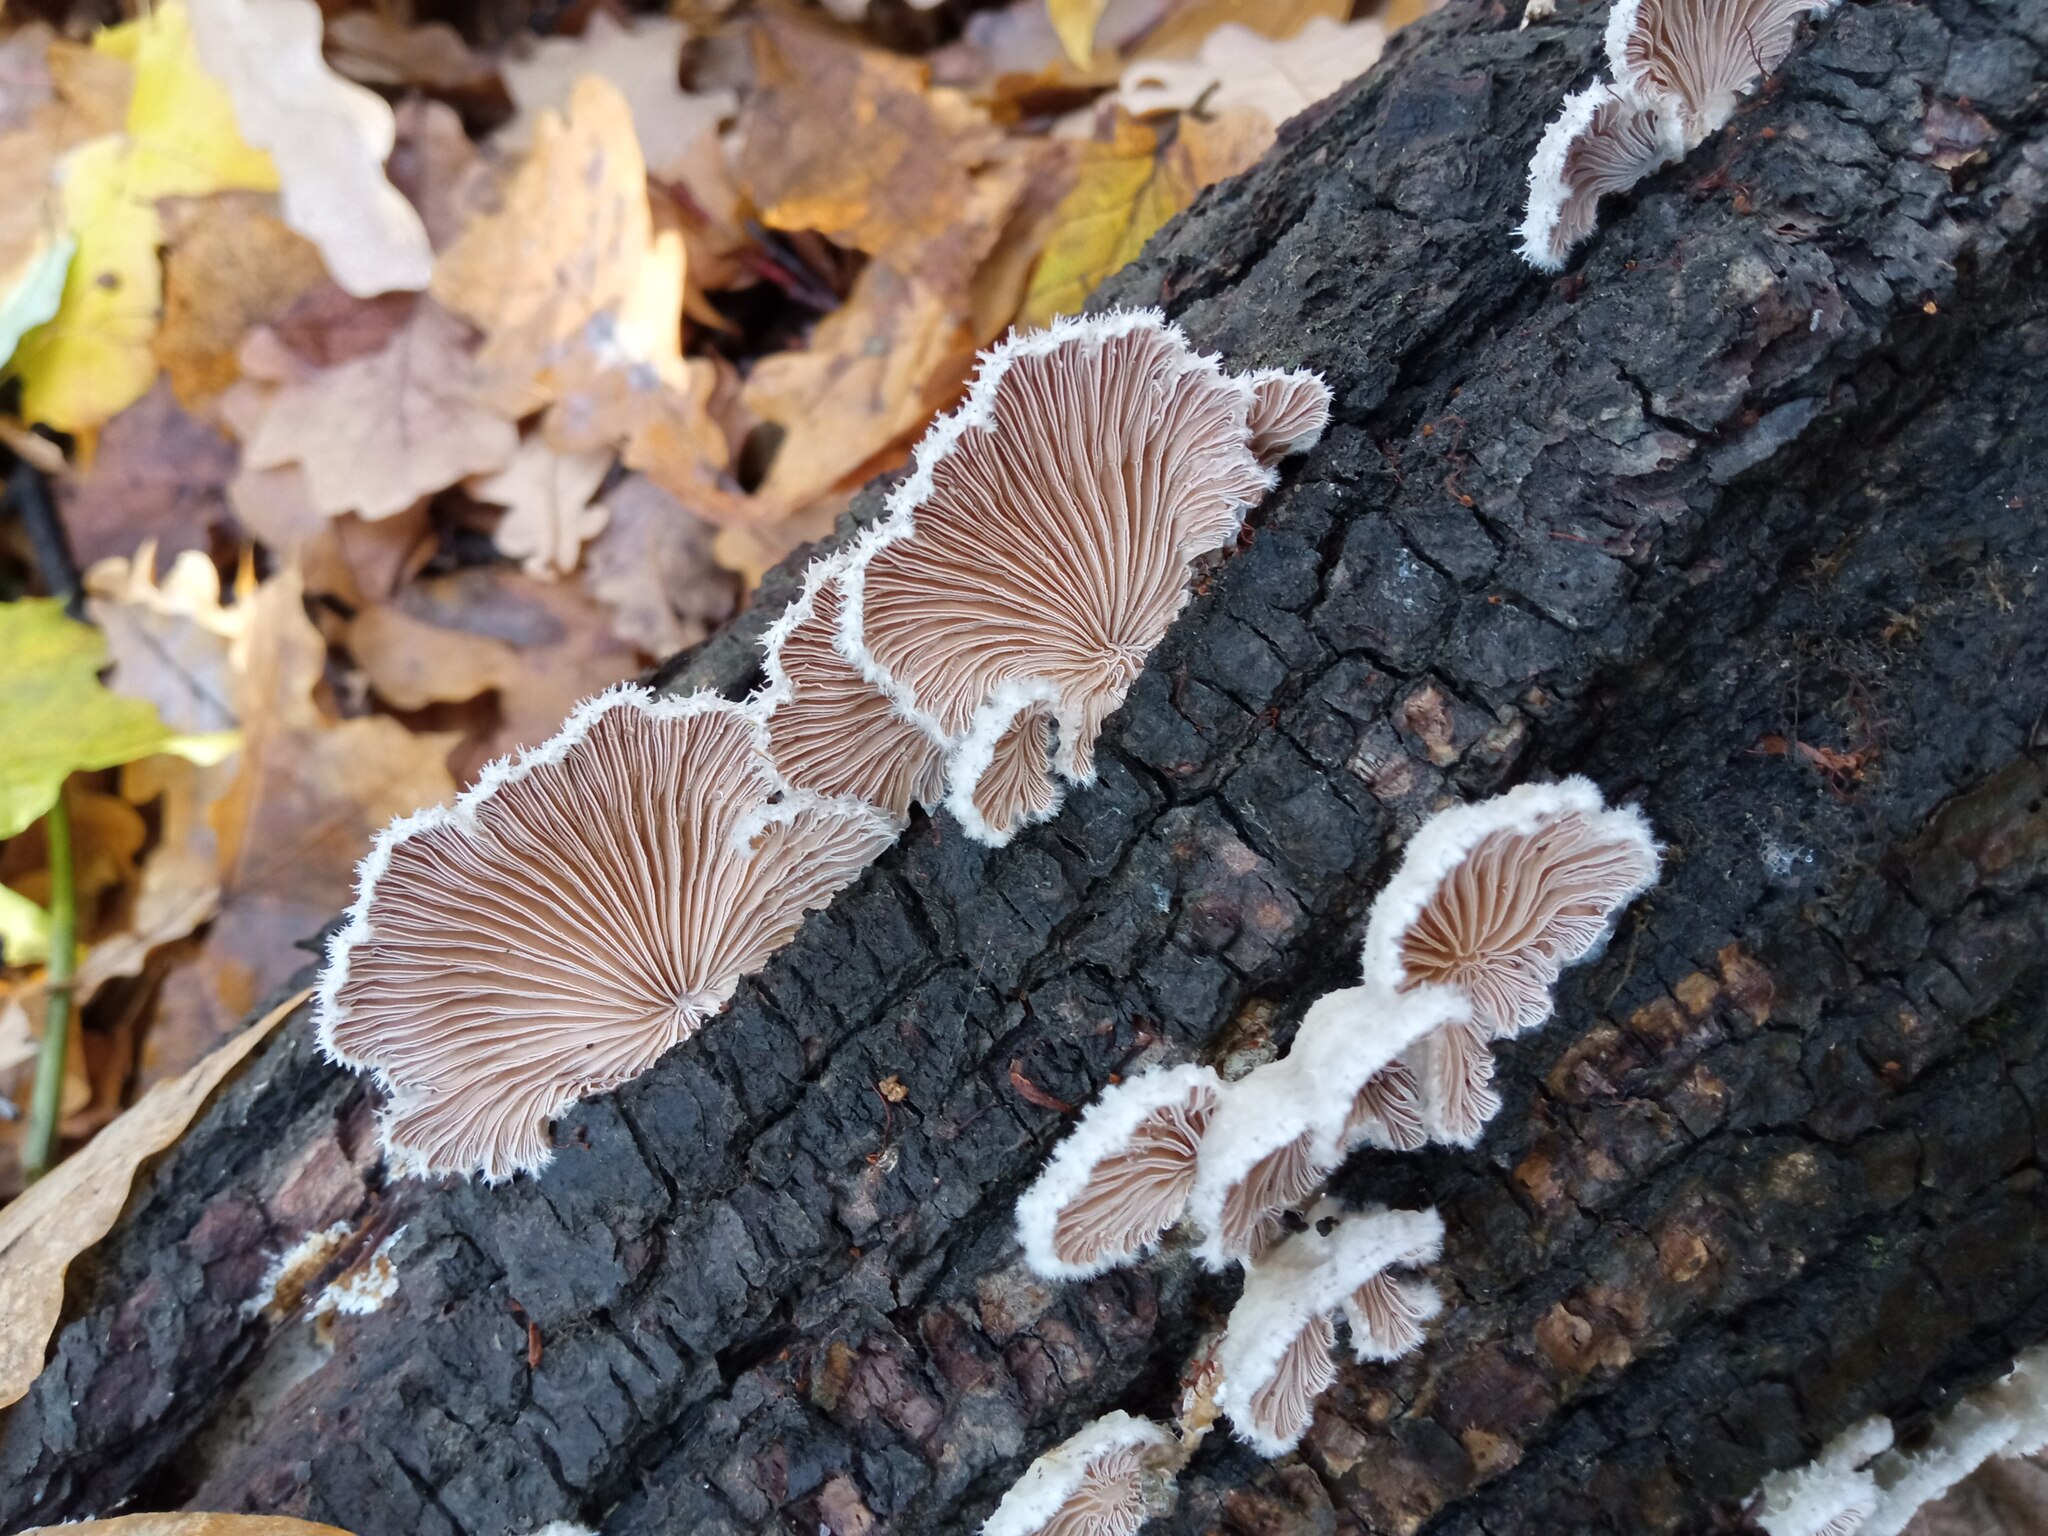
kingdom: Fungi
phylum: Basidiomycota
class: Agaricomycetes
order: Agaricales
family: Schizophyllaceae
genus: Schizophyllum
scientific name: Schizophyllum commune
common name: Common porecrust
